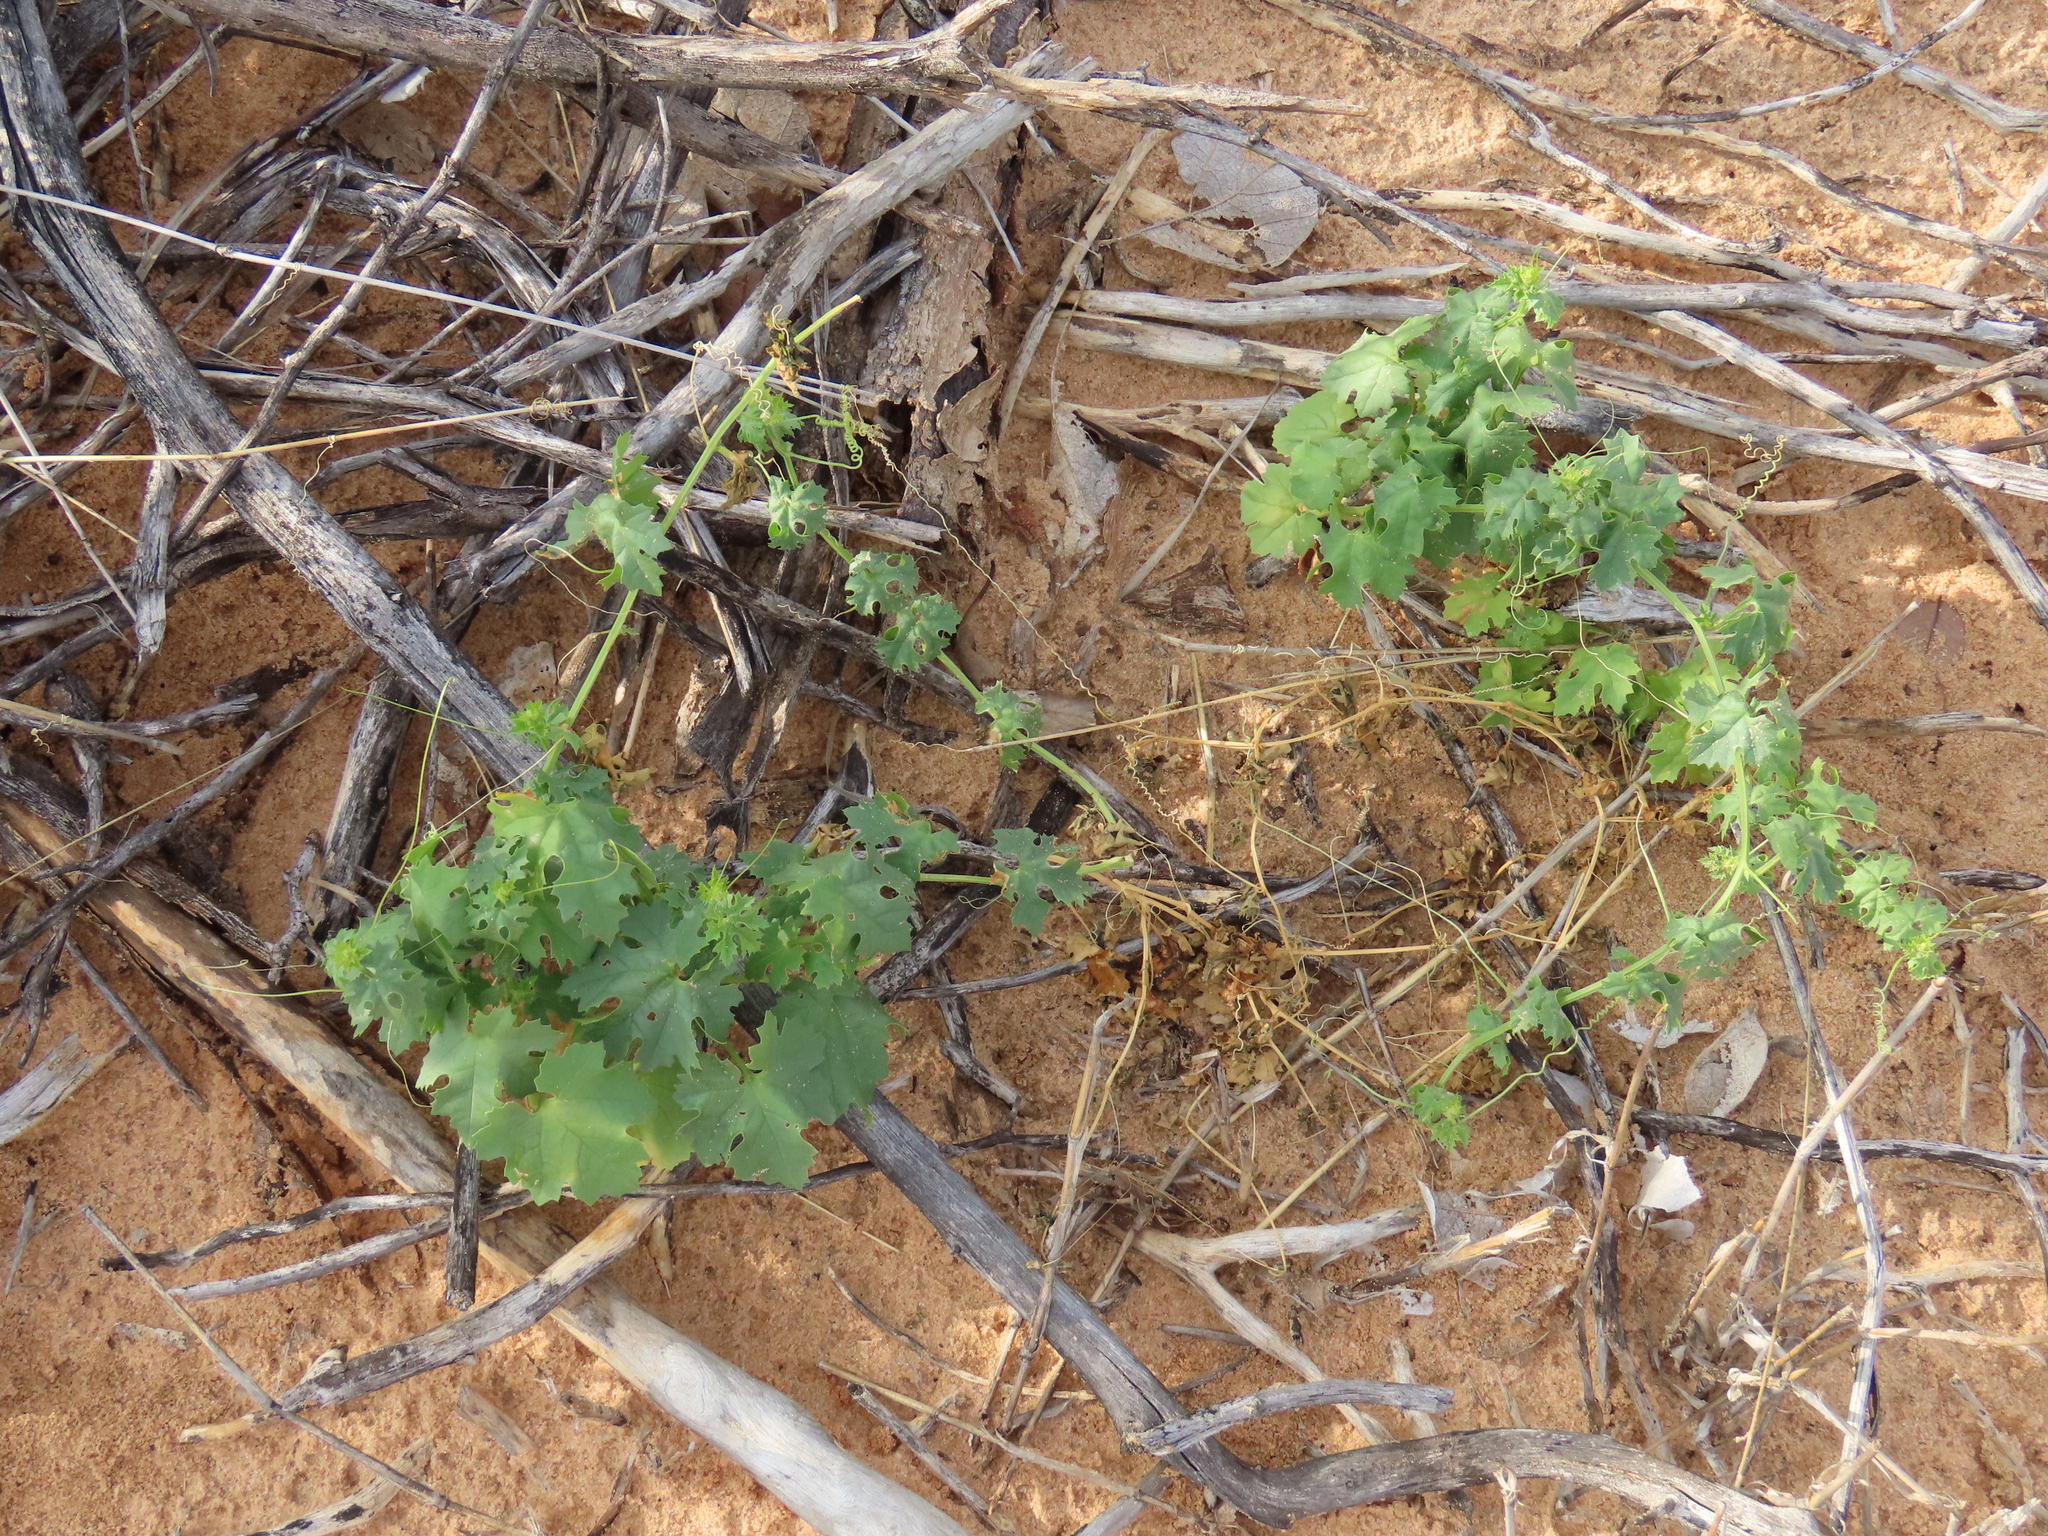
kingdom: Plantae
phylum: Tracheophyta
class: Magnoliopsida
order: Cucurbitales
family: Cucurbitaceae
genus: Momordica
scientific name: Momordica balsamina
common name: Southern balsampear
